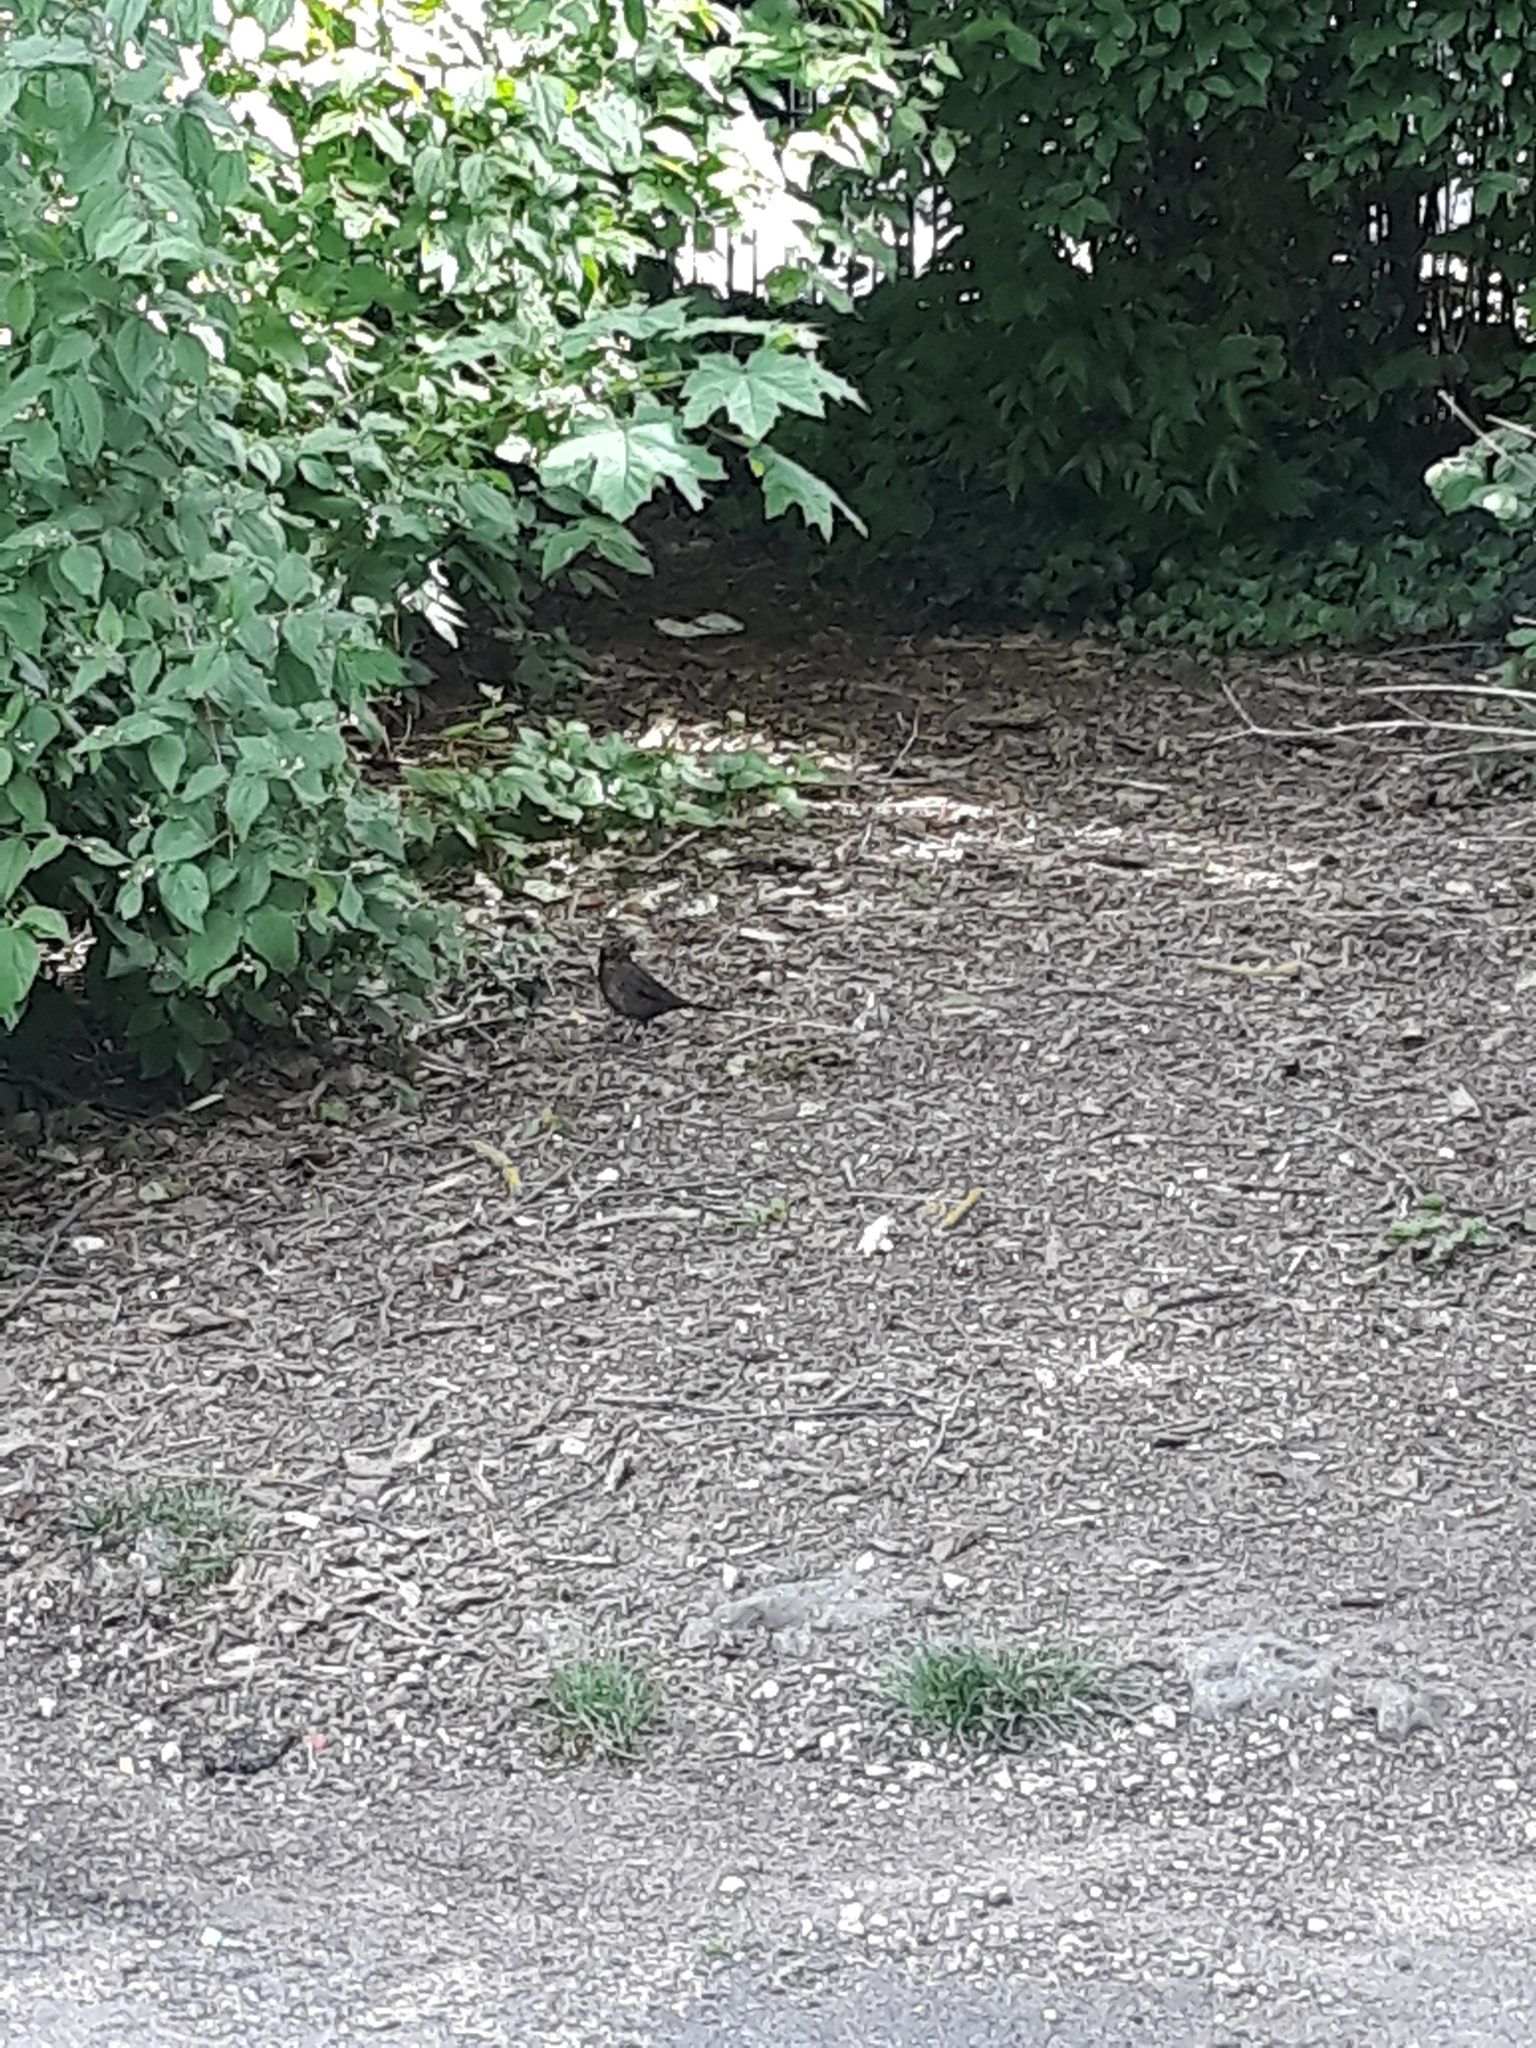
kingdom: Animalia
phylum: Chordata
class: Aves
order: Passeriformes
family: Turdidae
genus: Turdus
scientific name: Turdus merula
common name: Common blackbird
